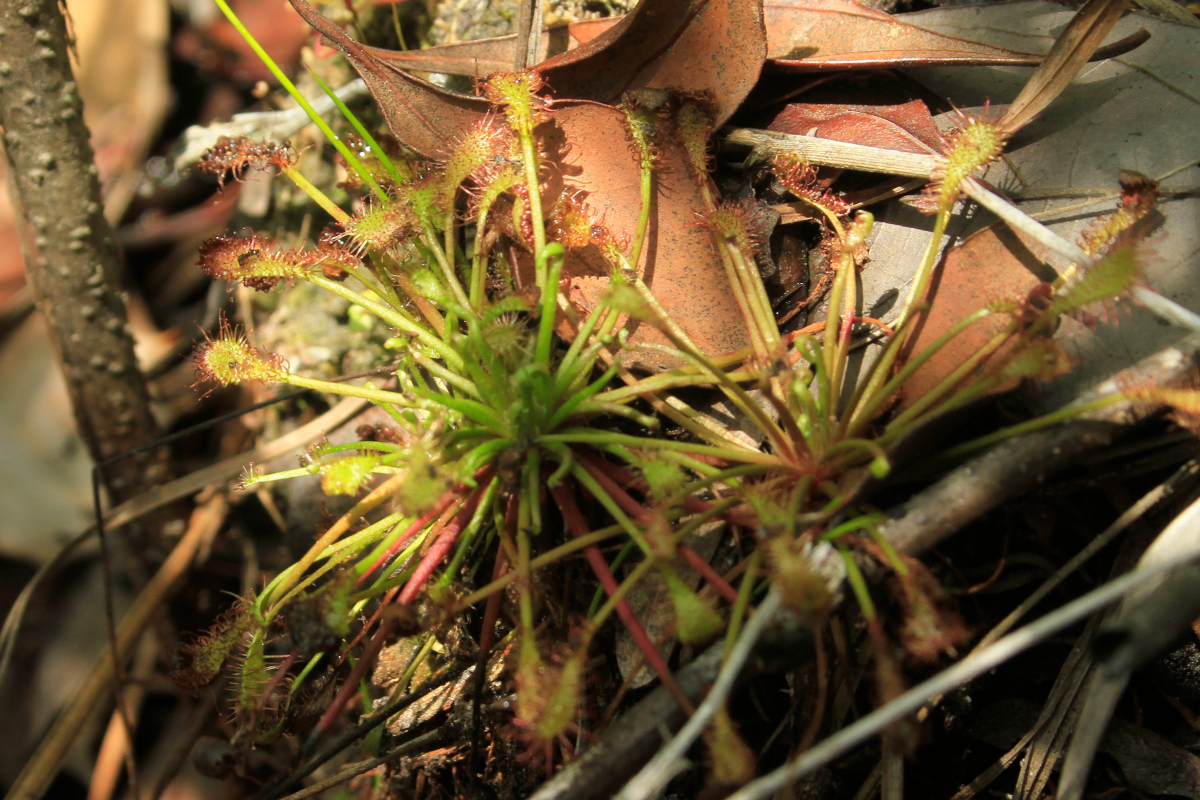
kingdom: Plantae
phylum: Tracheophyta
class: Magnoliopsida
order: Caryophyllales
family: Droseraceae
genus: Drosera
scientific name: Drosera intermedia
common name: Oblong-leaved sundew
